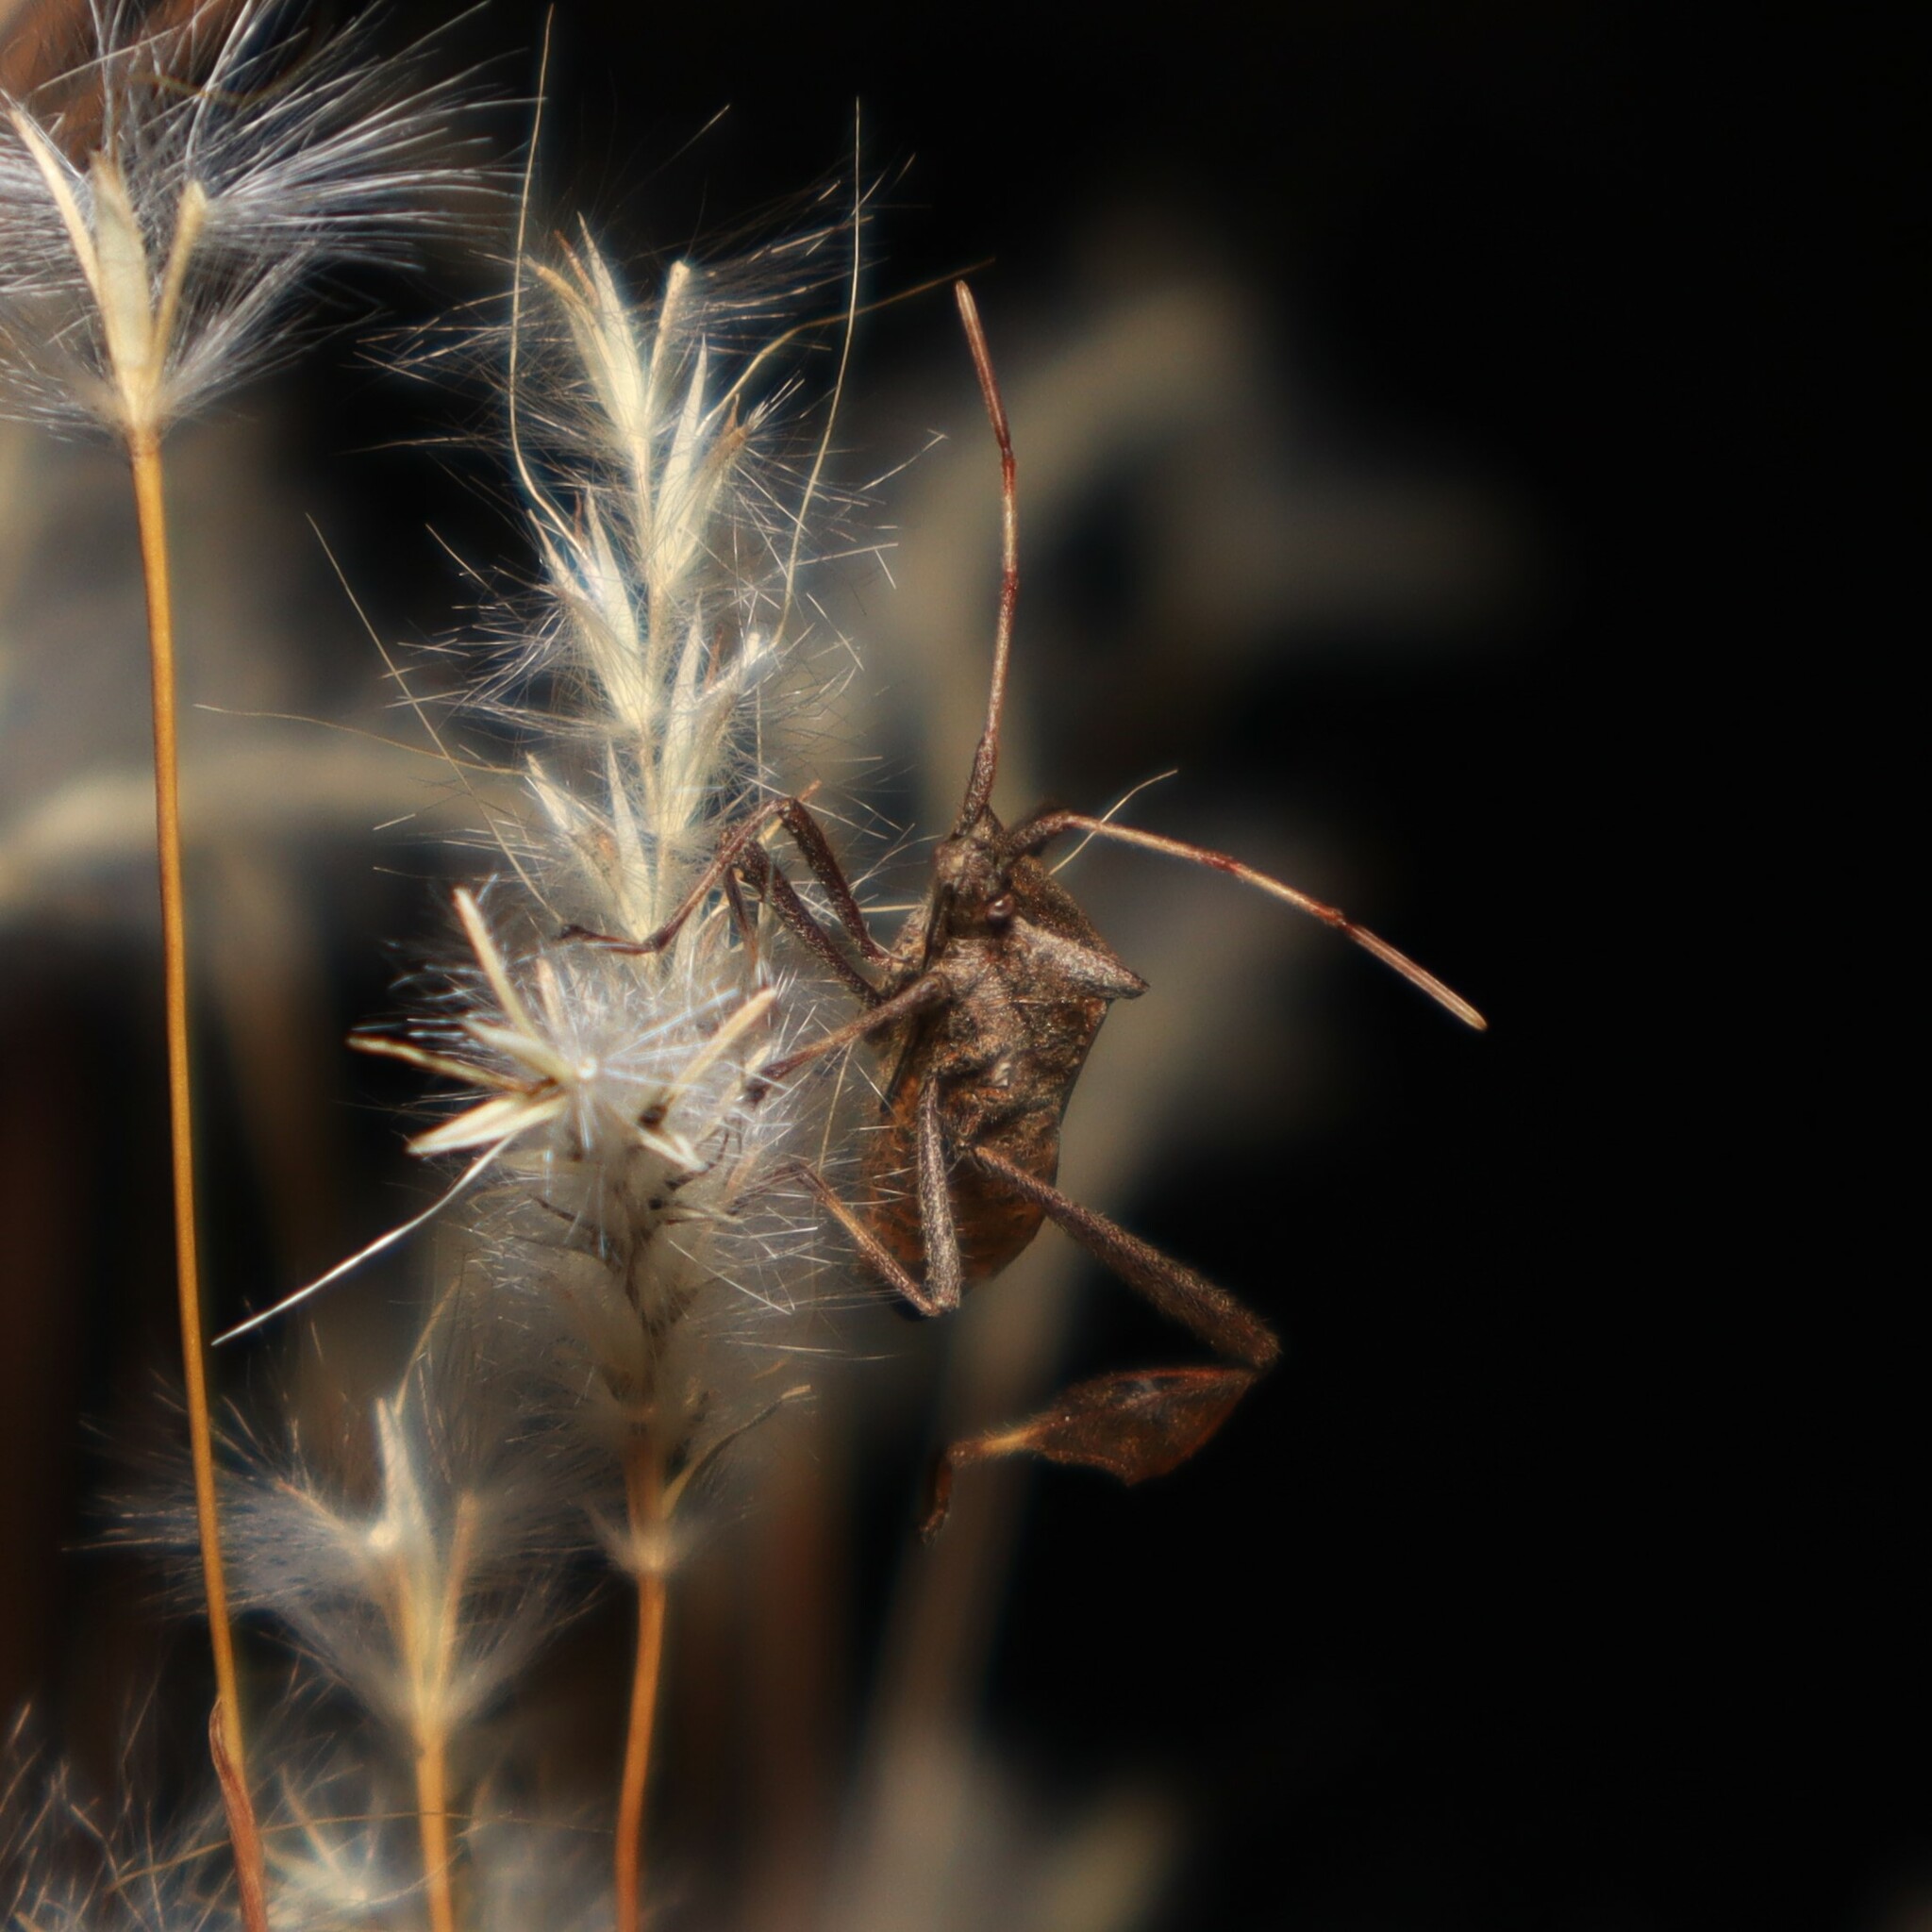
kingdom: Animalia
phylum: Arthropoda
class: Insecta
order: Hemiptera
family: Coreidae
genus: Leptoglossus
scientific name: Leptoglossus phyllopus
